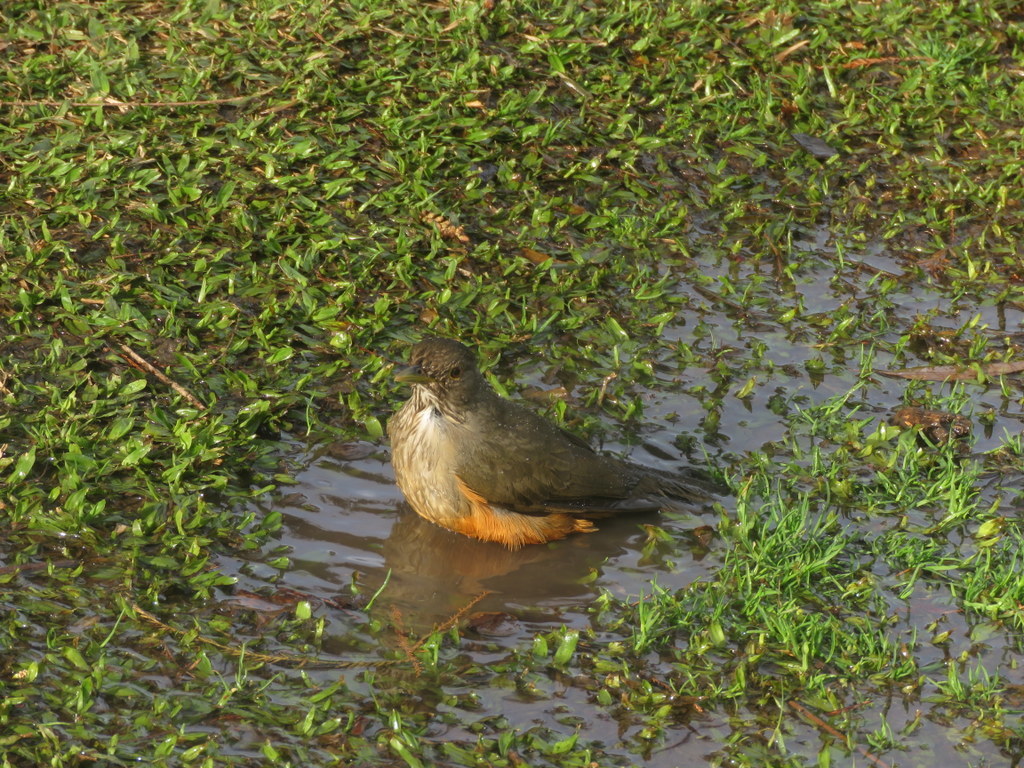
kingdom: Animalia
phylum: Chordata
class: Aves
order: Passeriformes
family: Turdidae
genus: Turdus
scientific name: Turdus rufiventris
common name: Rufous-bellied thrush
